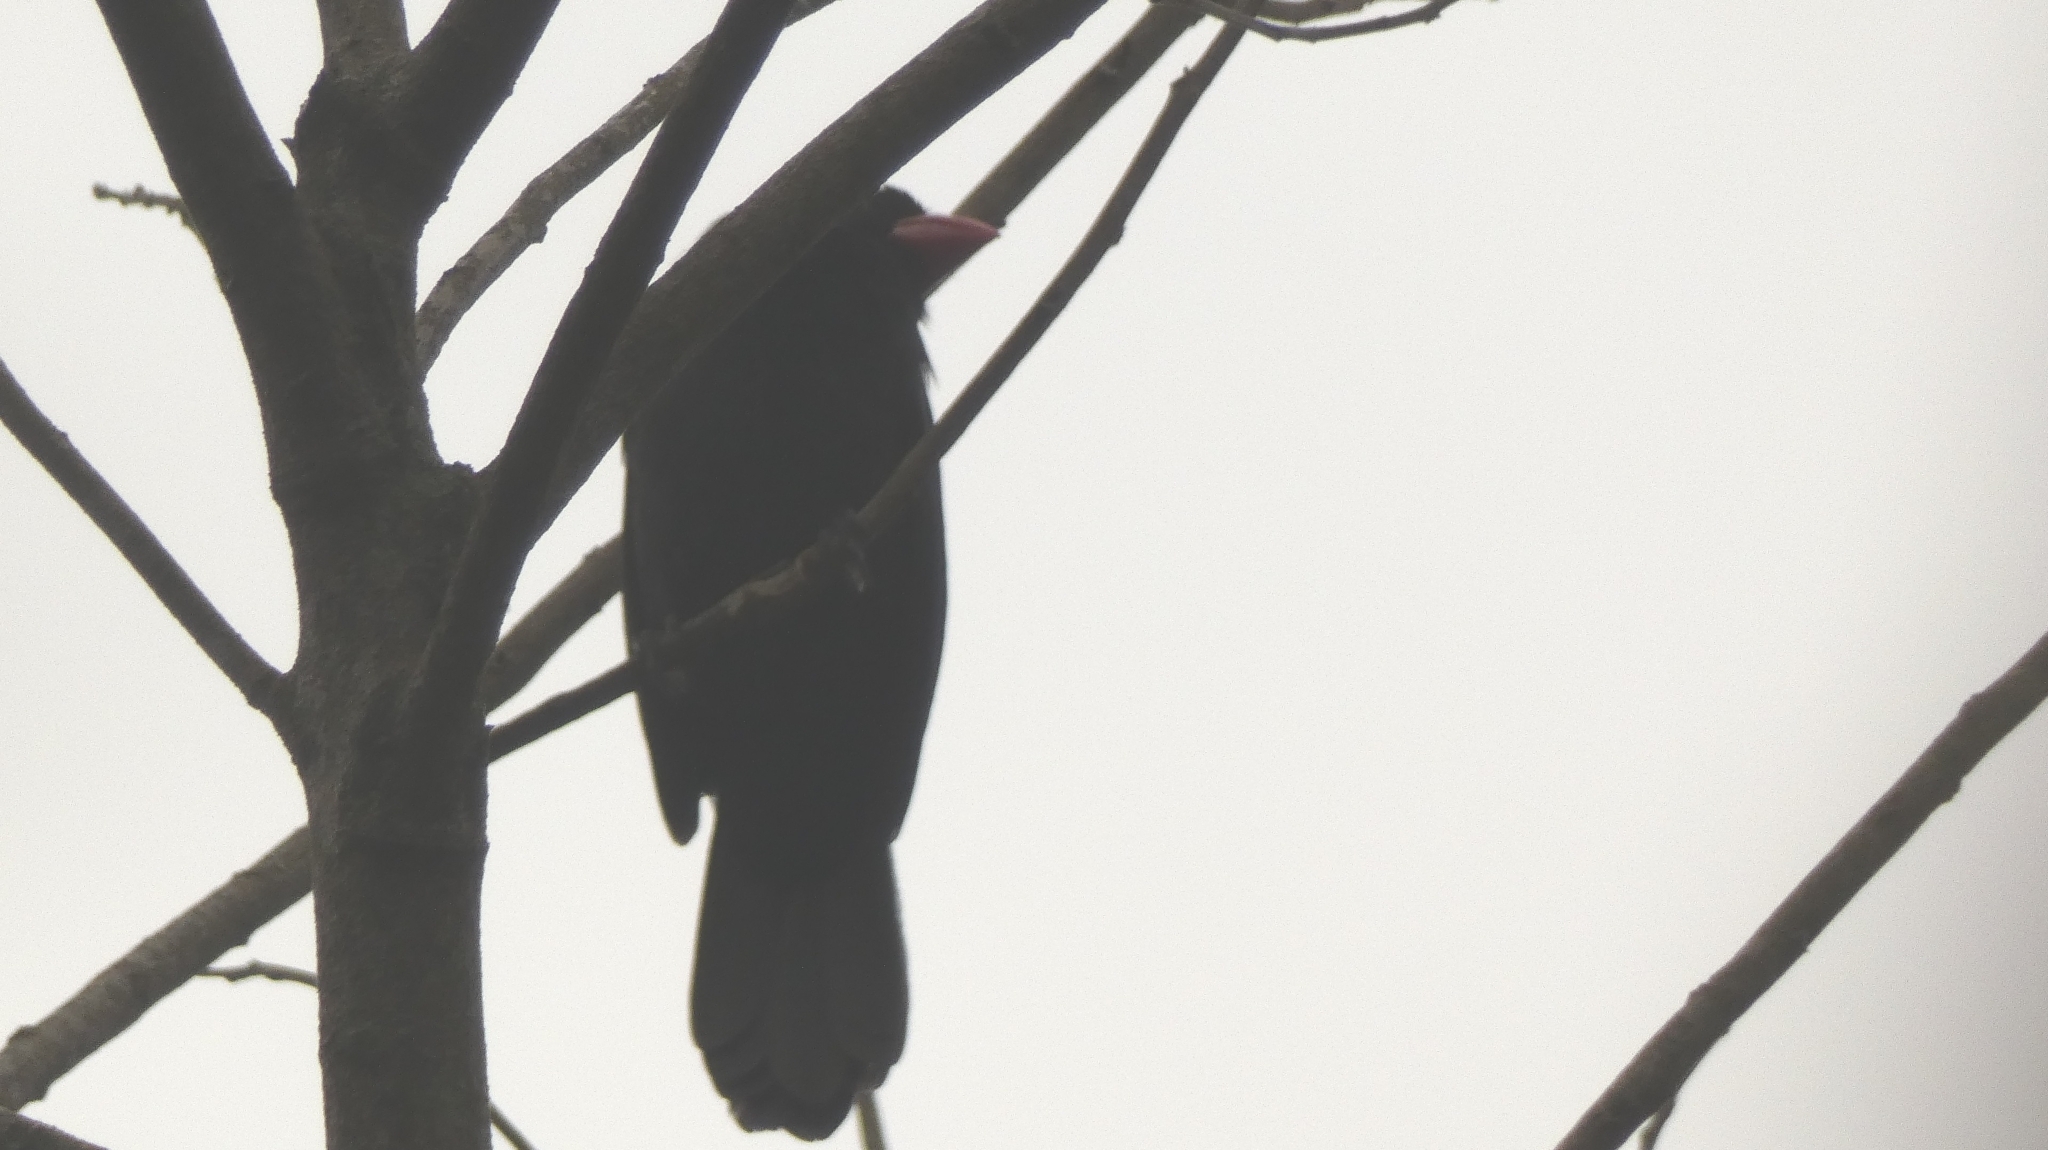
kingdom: Animalia
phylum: Chordata
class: Aves
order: Passeriformes
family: Thraupidae
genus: Saltator
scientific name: Saltator fuliginosus
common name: Black-throated grosbeak
